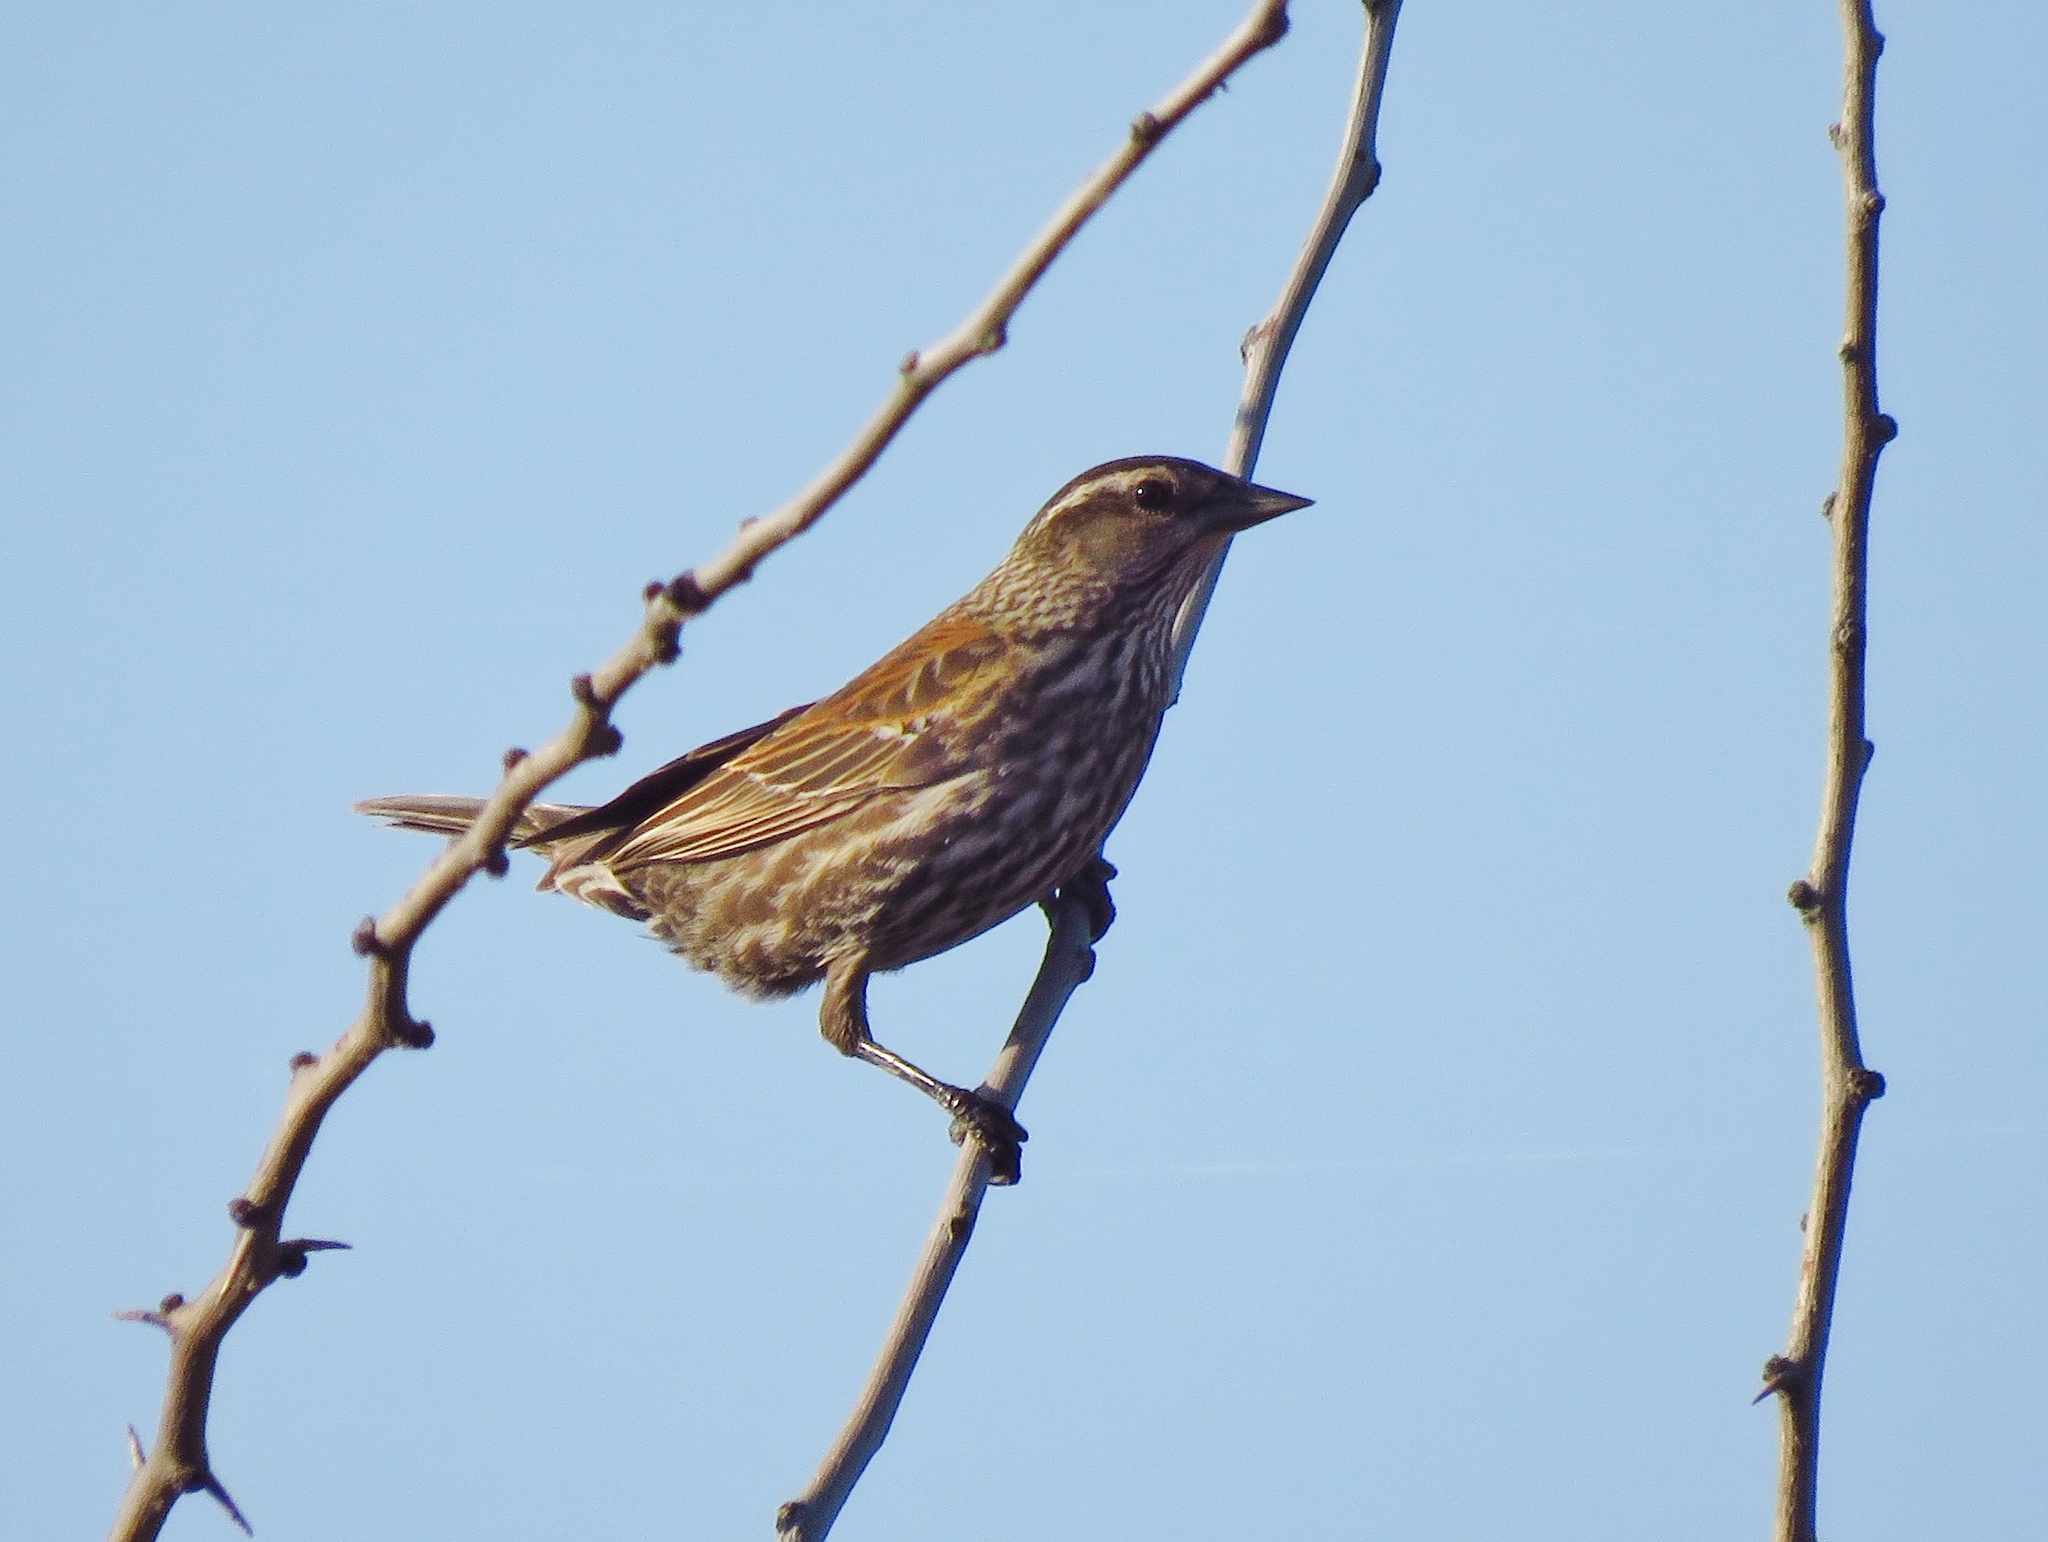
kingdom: Animalia
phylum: Chordata
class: Aves
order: Passeriformes
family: Icteridae
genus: Agelaius
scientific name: Agelaius phoeniceus
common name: Red-winged blackbird
